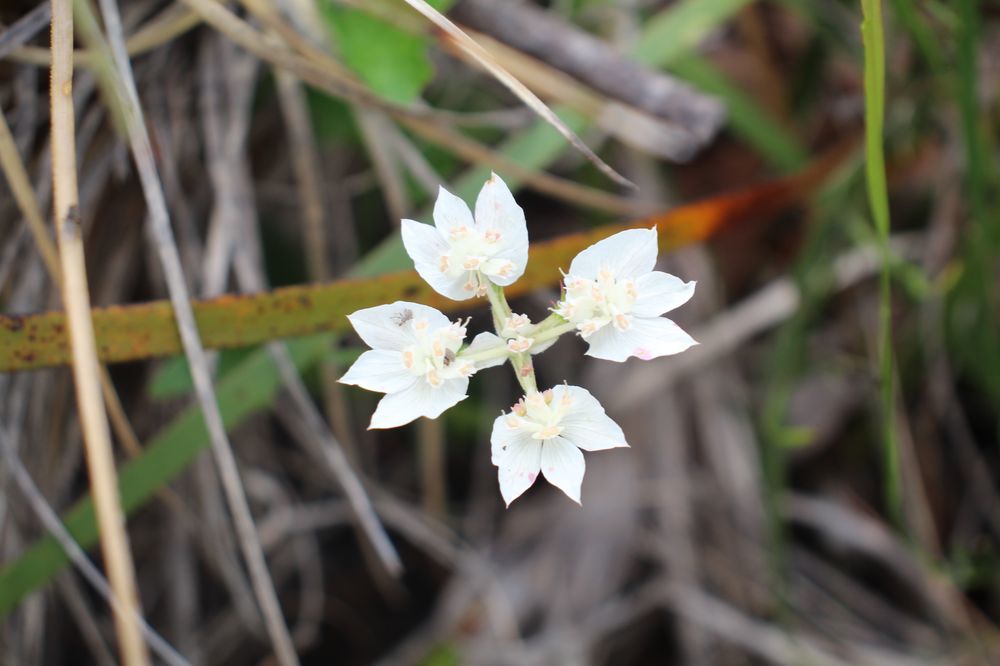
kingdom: Plantae
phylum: Tracheophyta
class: Magnoliopsida
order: Apiales
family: Apiaceae
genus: Xanthosia
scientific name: Xanthosia rotundifolia
